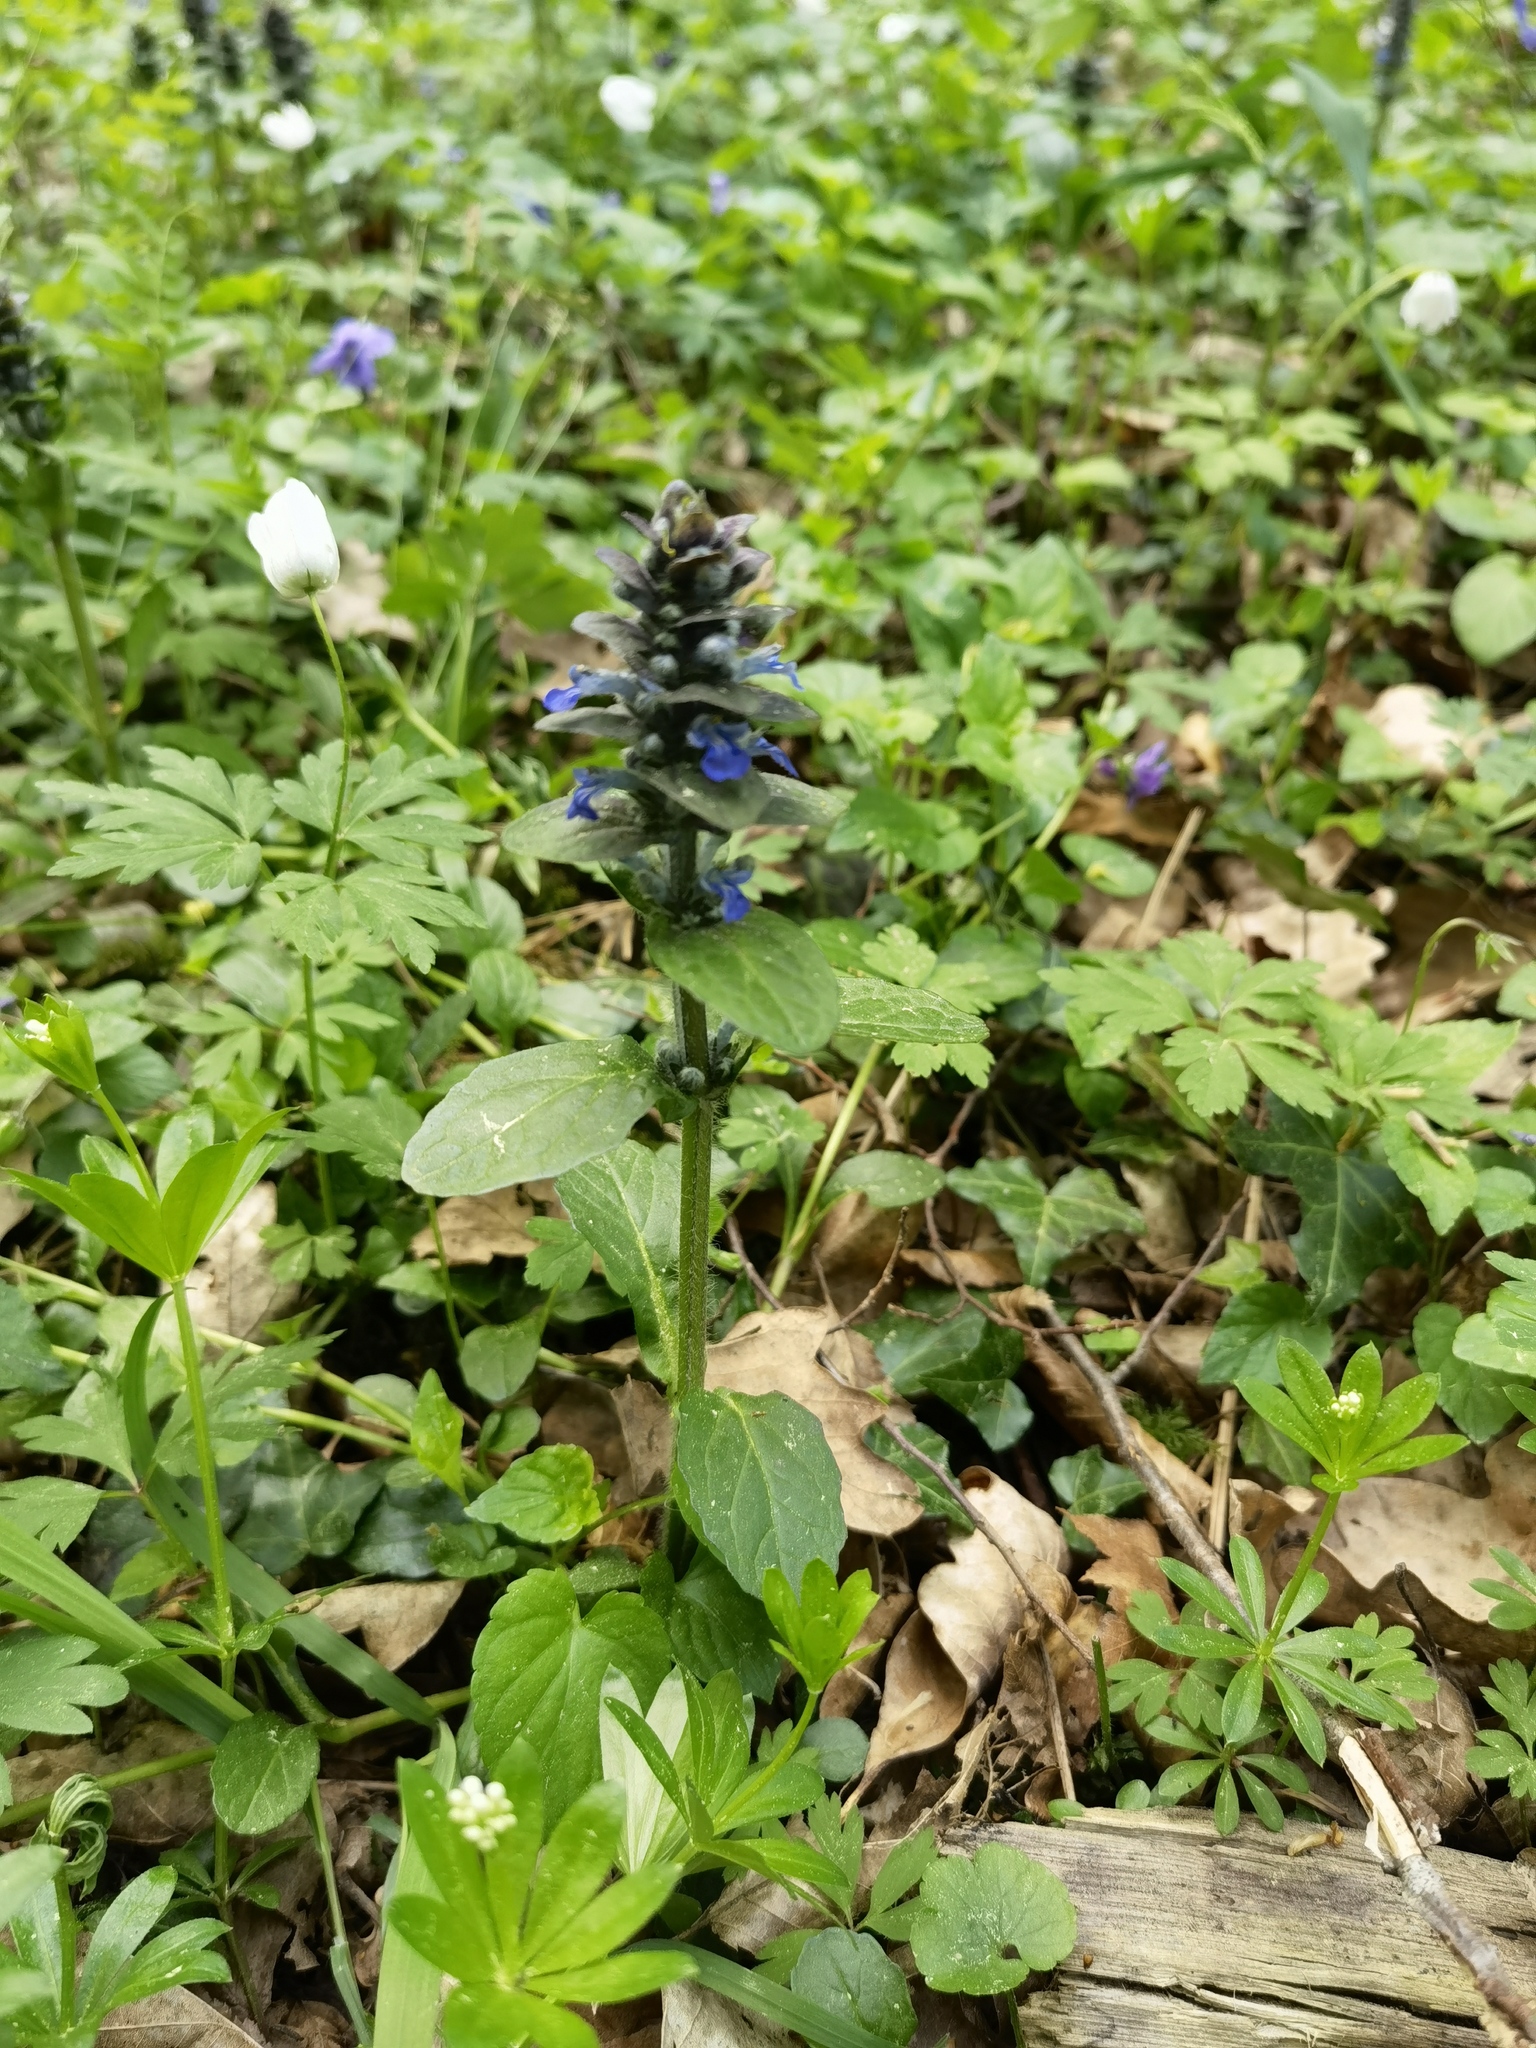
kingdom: Plantae
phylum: Tracheophyta
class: Magnoliopsida
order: Lamiales
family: Lamiaceae
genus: Ajuga
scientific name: Ajuga reptans
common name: Bugle
